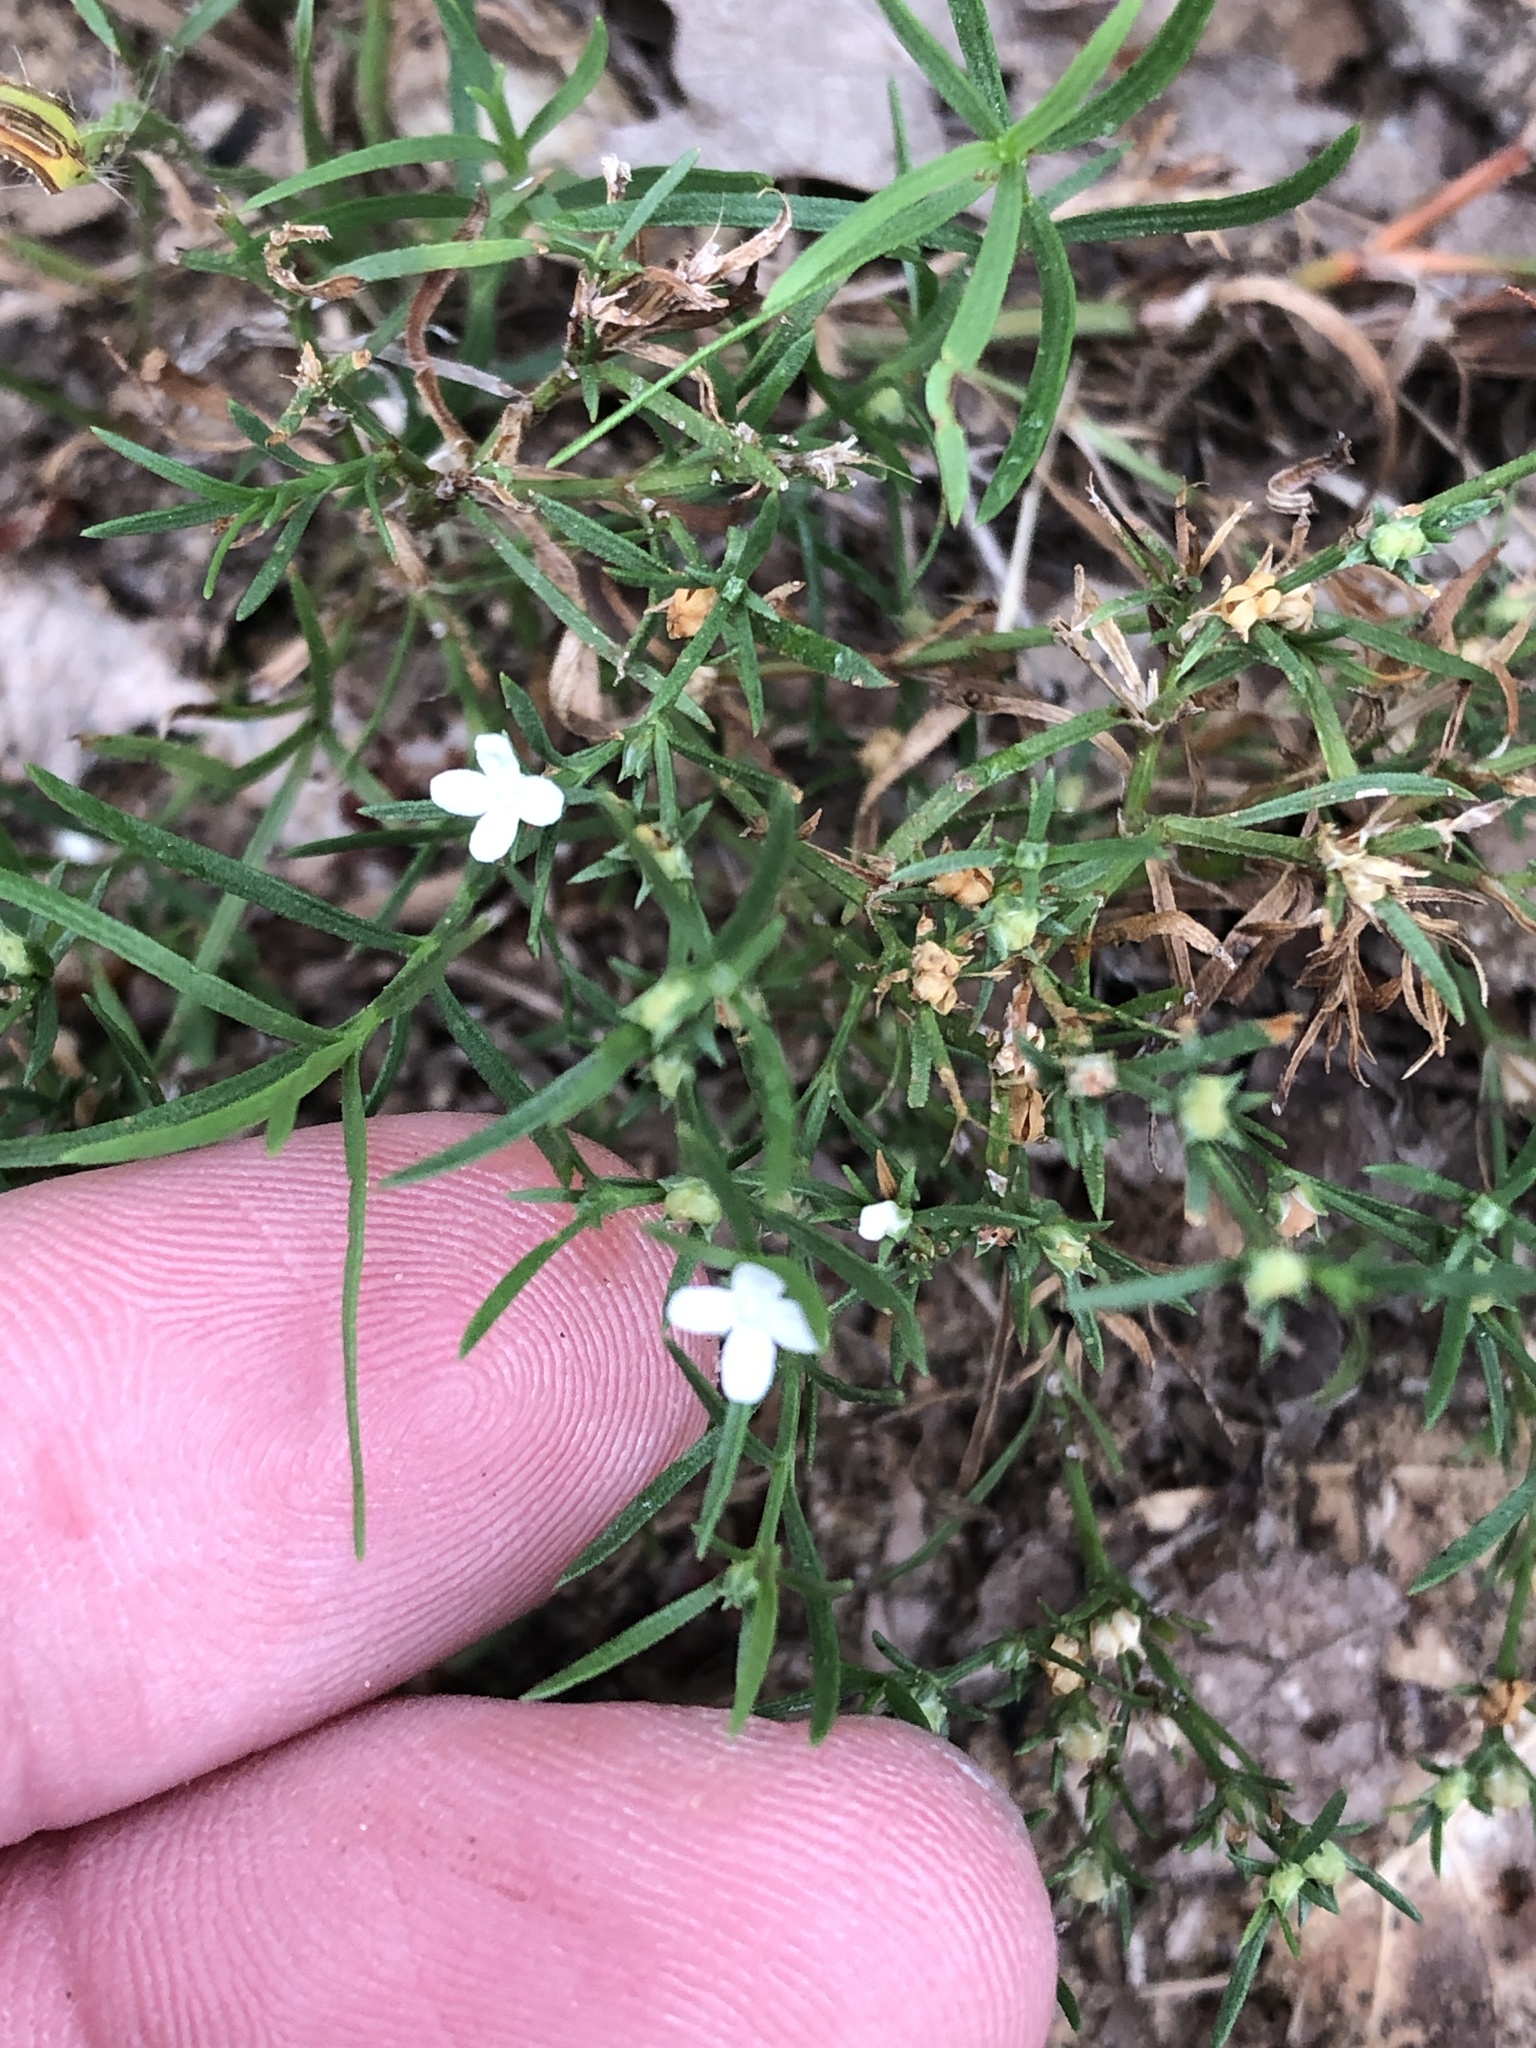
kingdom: Plantae
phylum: Tracheophyta
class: Magnoliopsida
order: Lamiales
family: Tetrachondraceae
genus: Polypremum
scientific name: Polypremum procumbens
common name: Juniper-leaf
